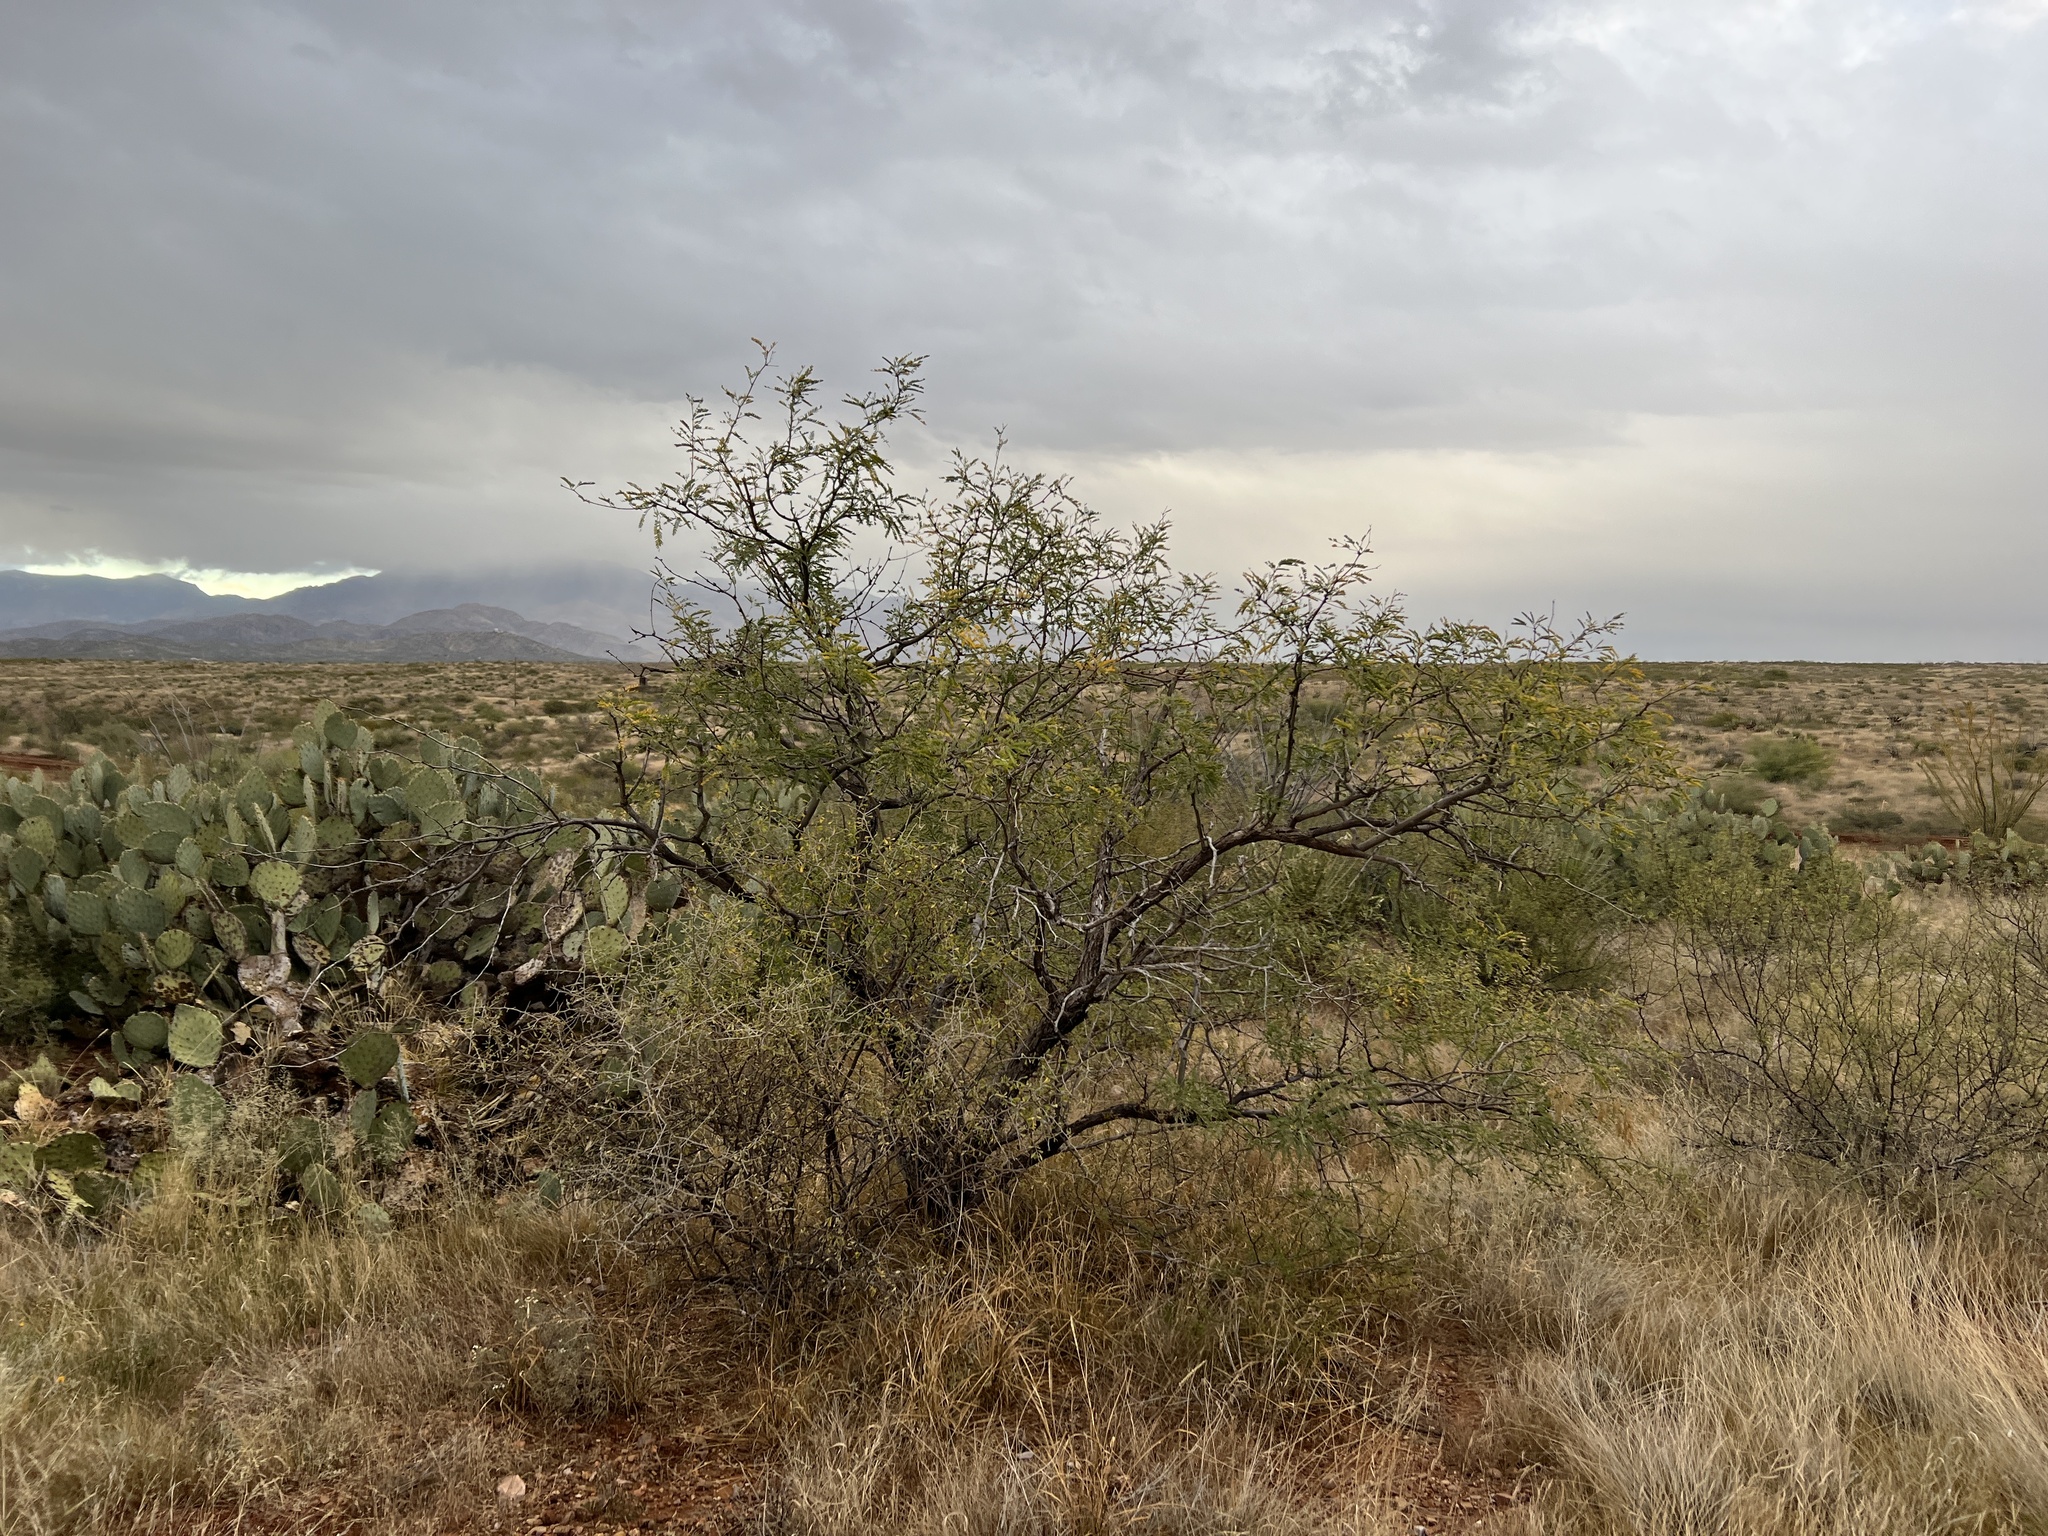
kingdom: Plantae
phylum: Tracheophyta
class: Magnoliopsida
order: Fabales
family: Fabaceae
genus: Prosopis
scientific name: Prosopis velutina
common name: Velvet mesquite
